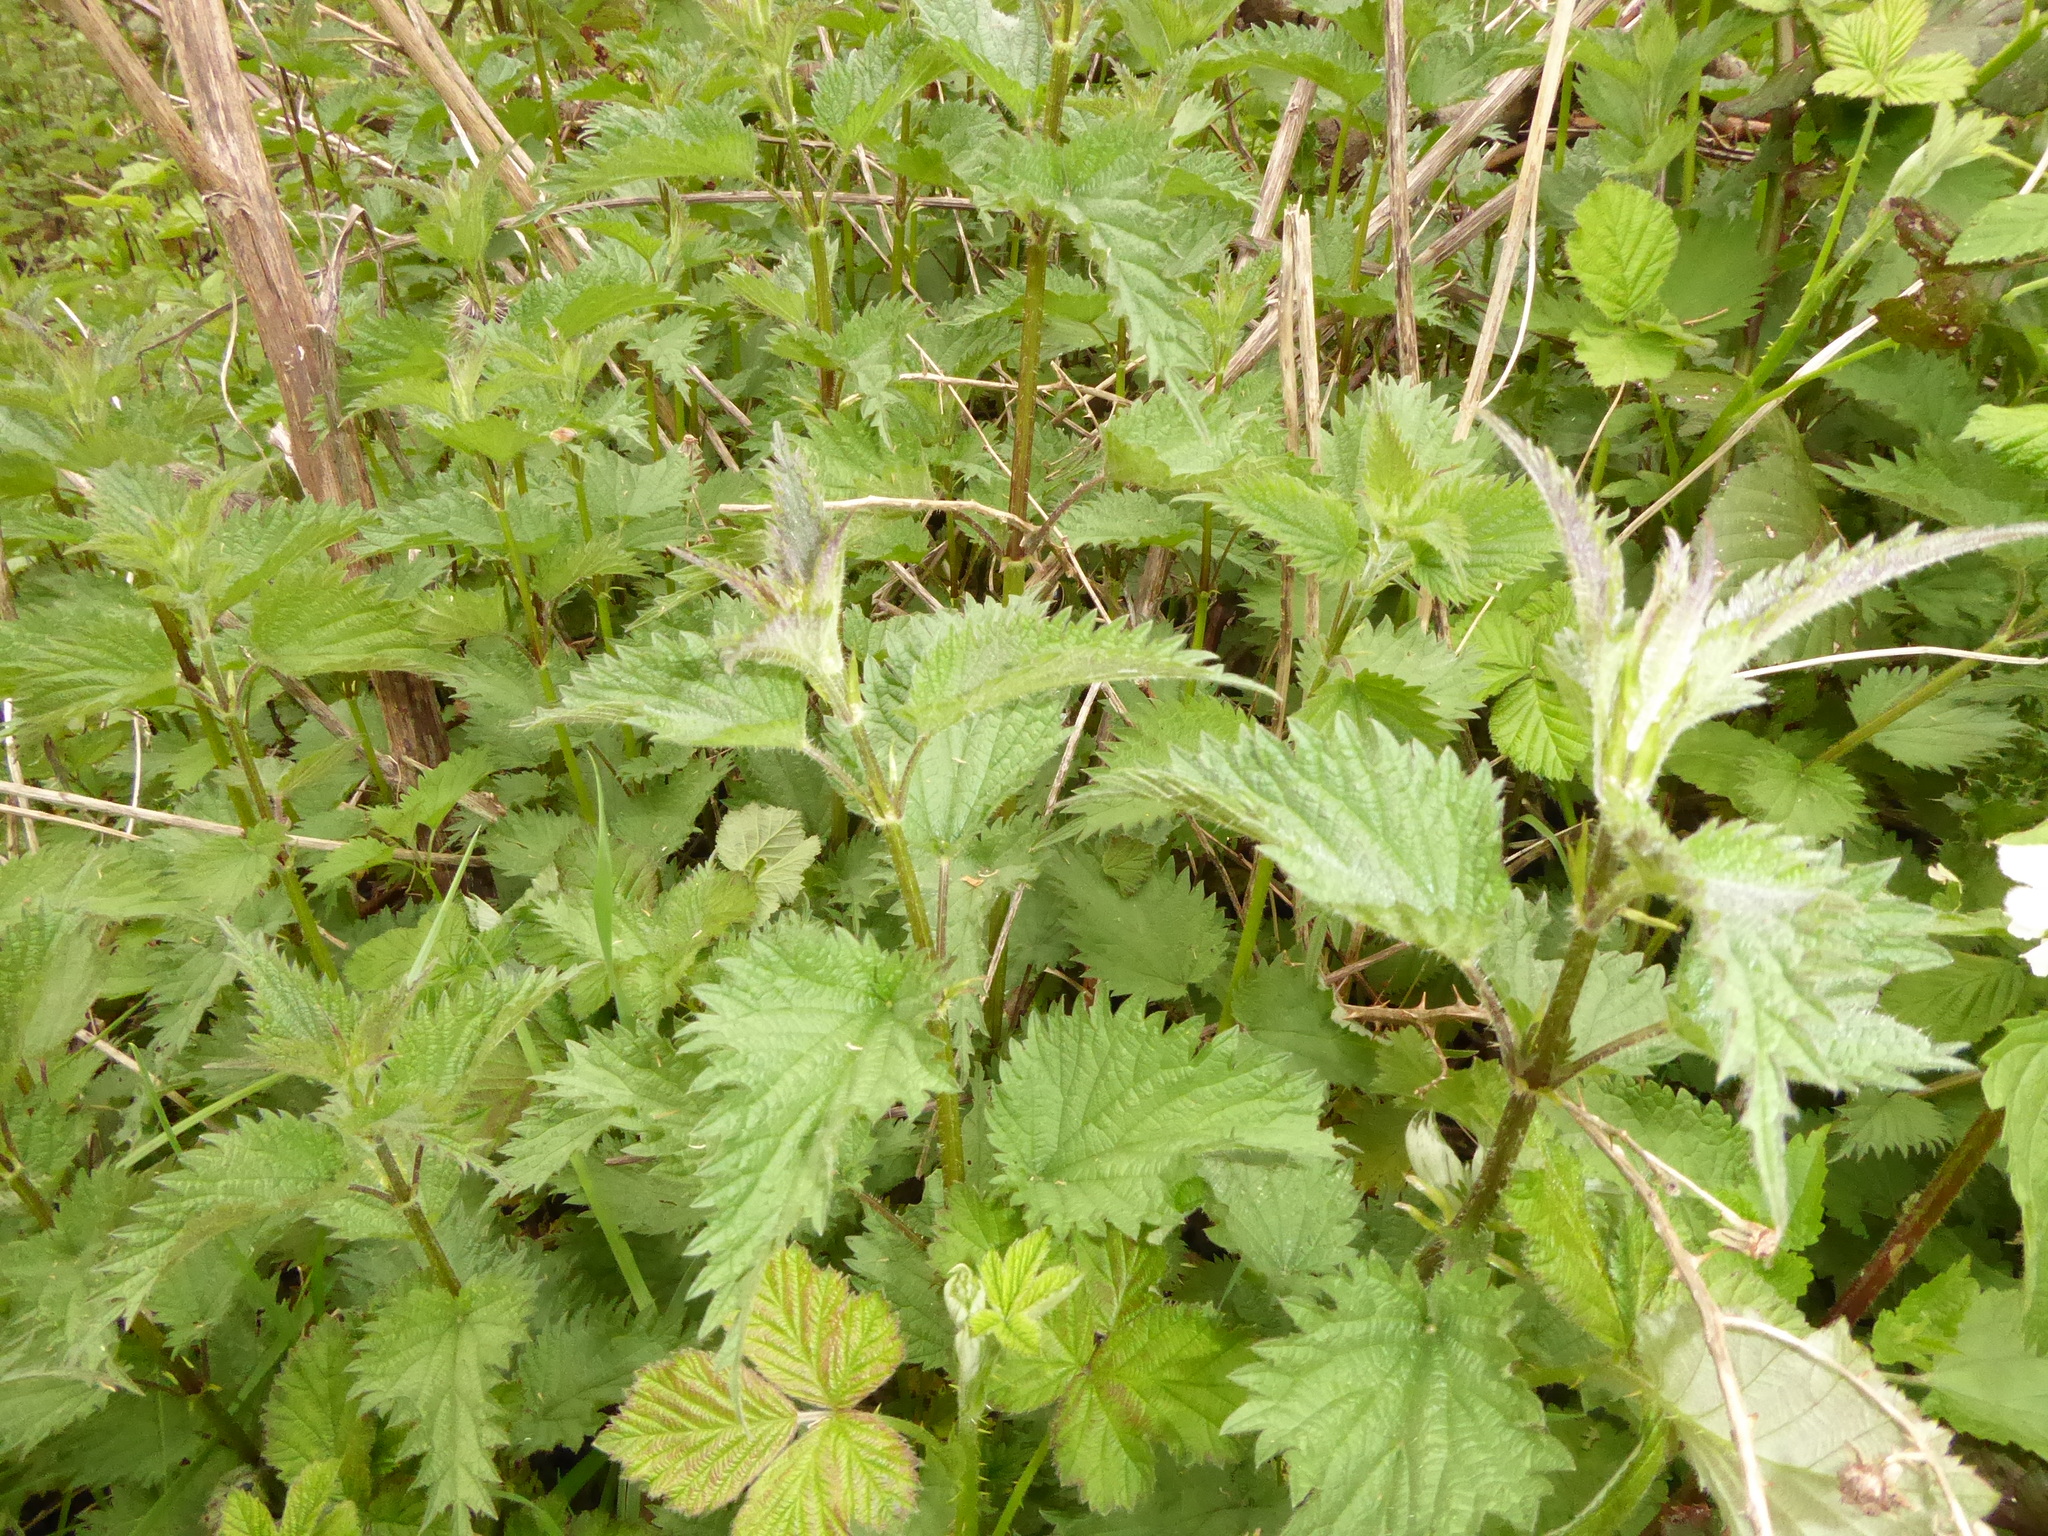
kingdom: Plantae
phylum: Tracheophyta
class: Magnoliopsida
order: Rosales
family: Urticaceae
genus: Urtica
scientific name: Urtica dioica
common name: Common nettle
